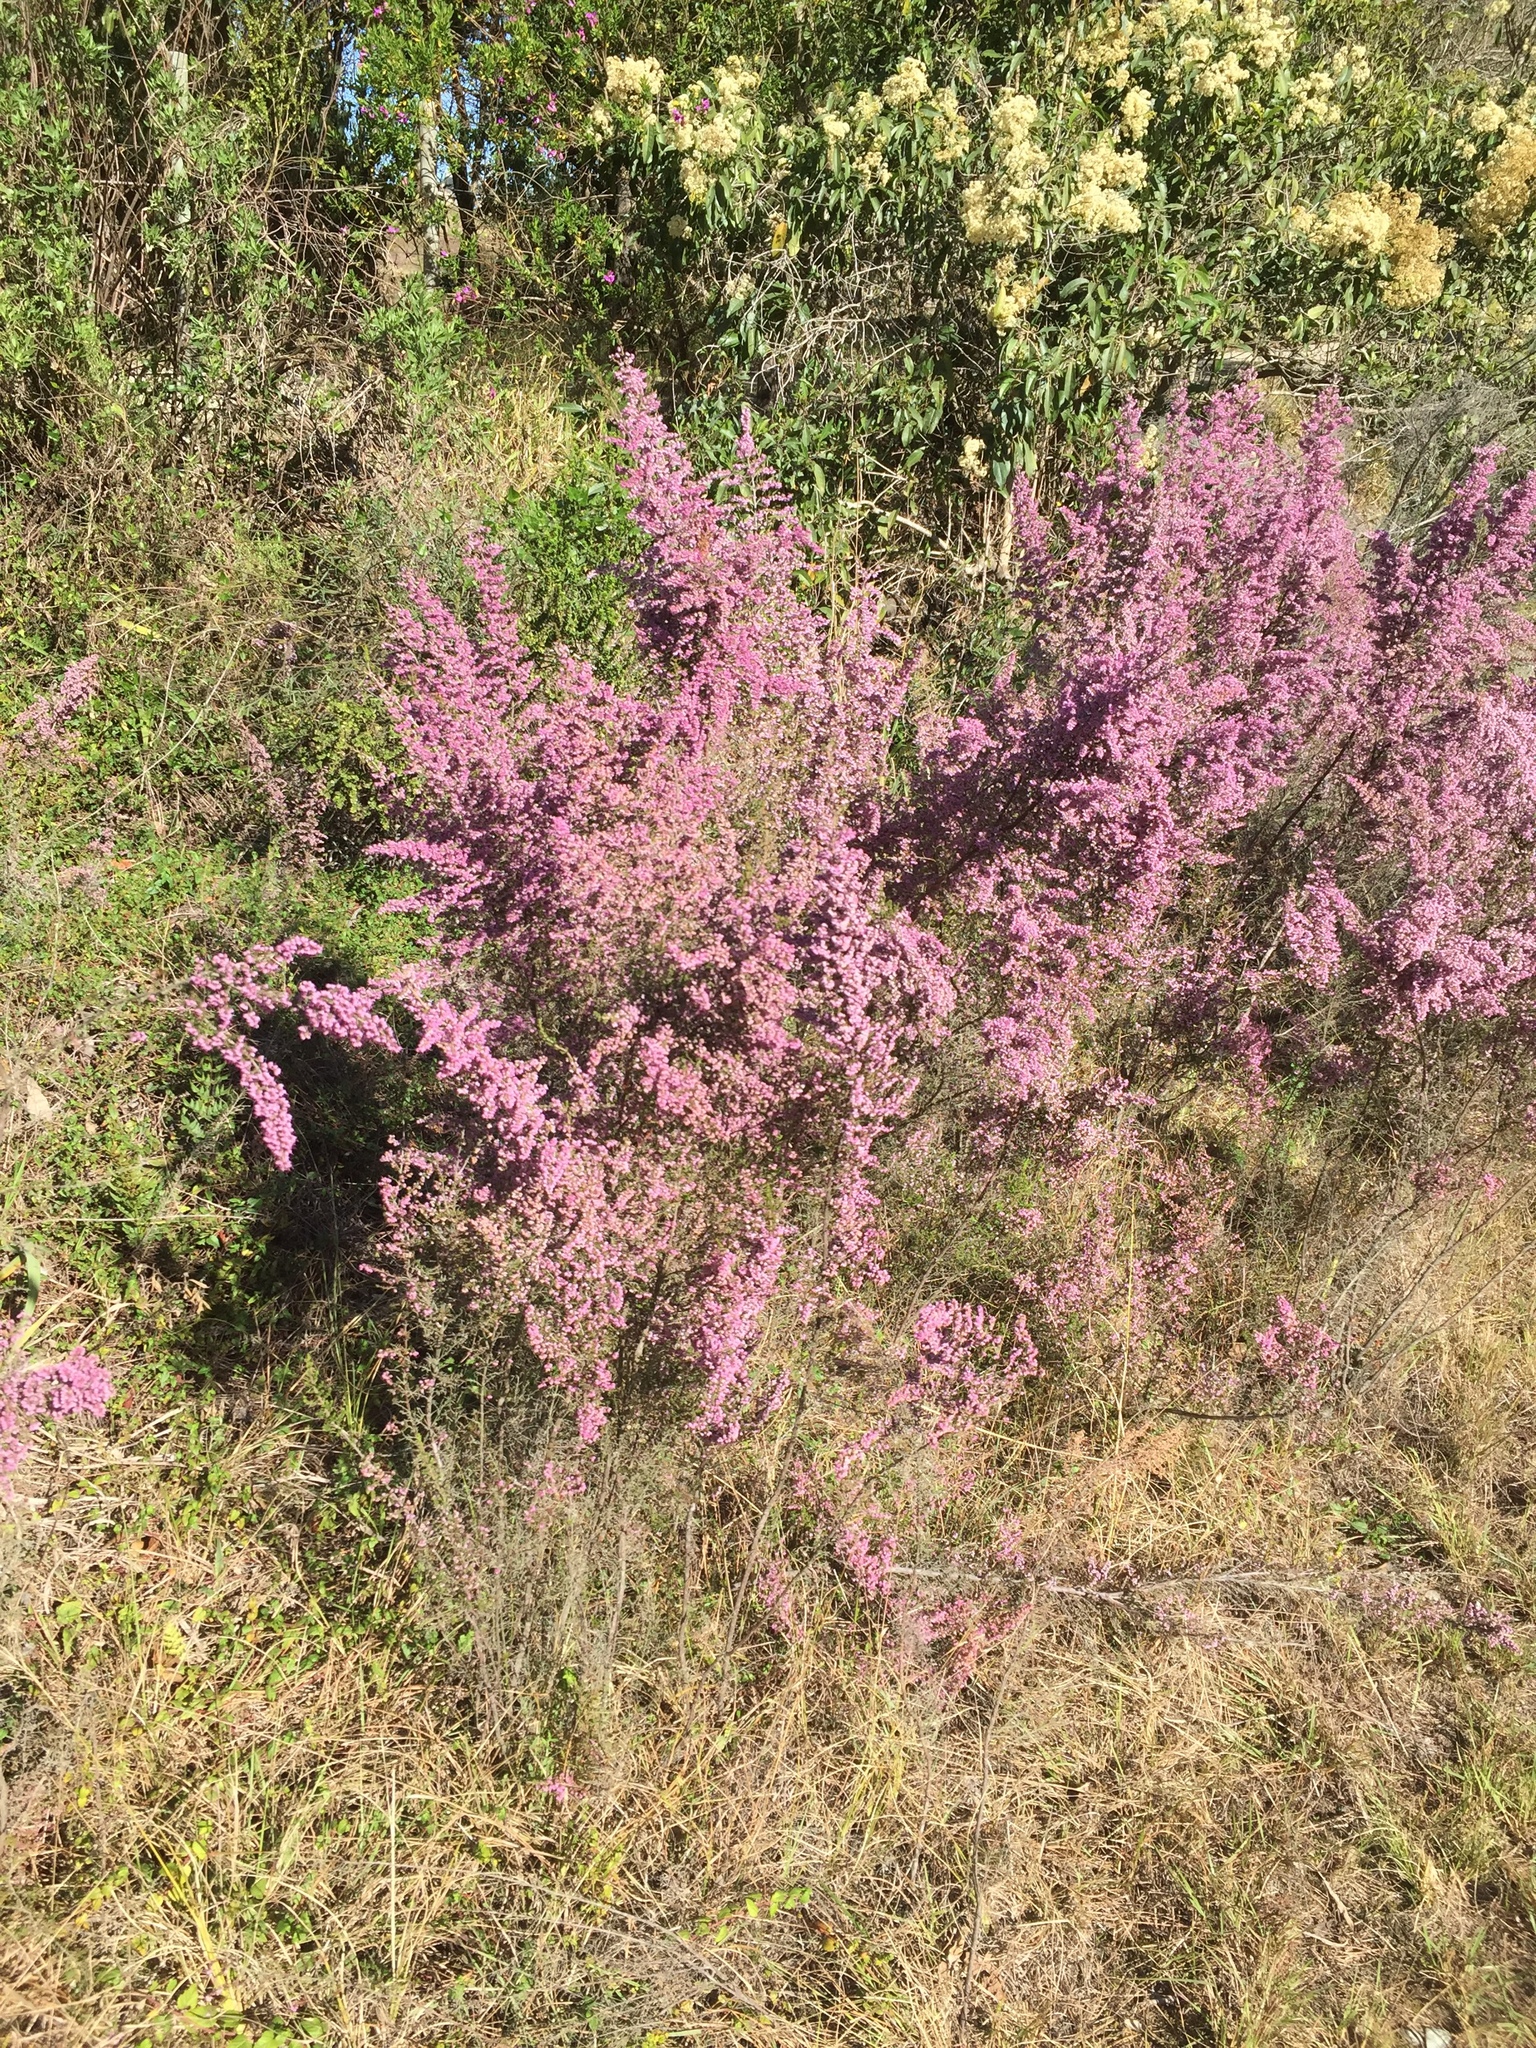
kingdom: Plantae
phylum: Tracheophyta
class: Magnoliopsida
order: Ericales
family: Ericaceae
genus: Erica
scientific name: Erica sparsa
